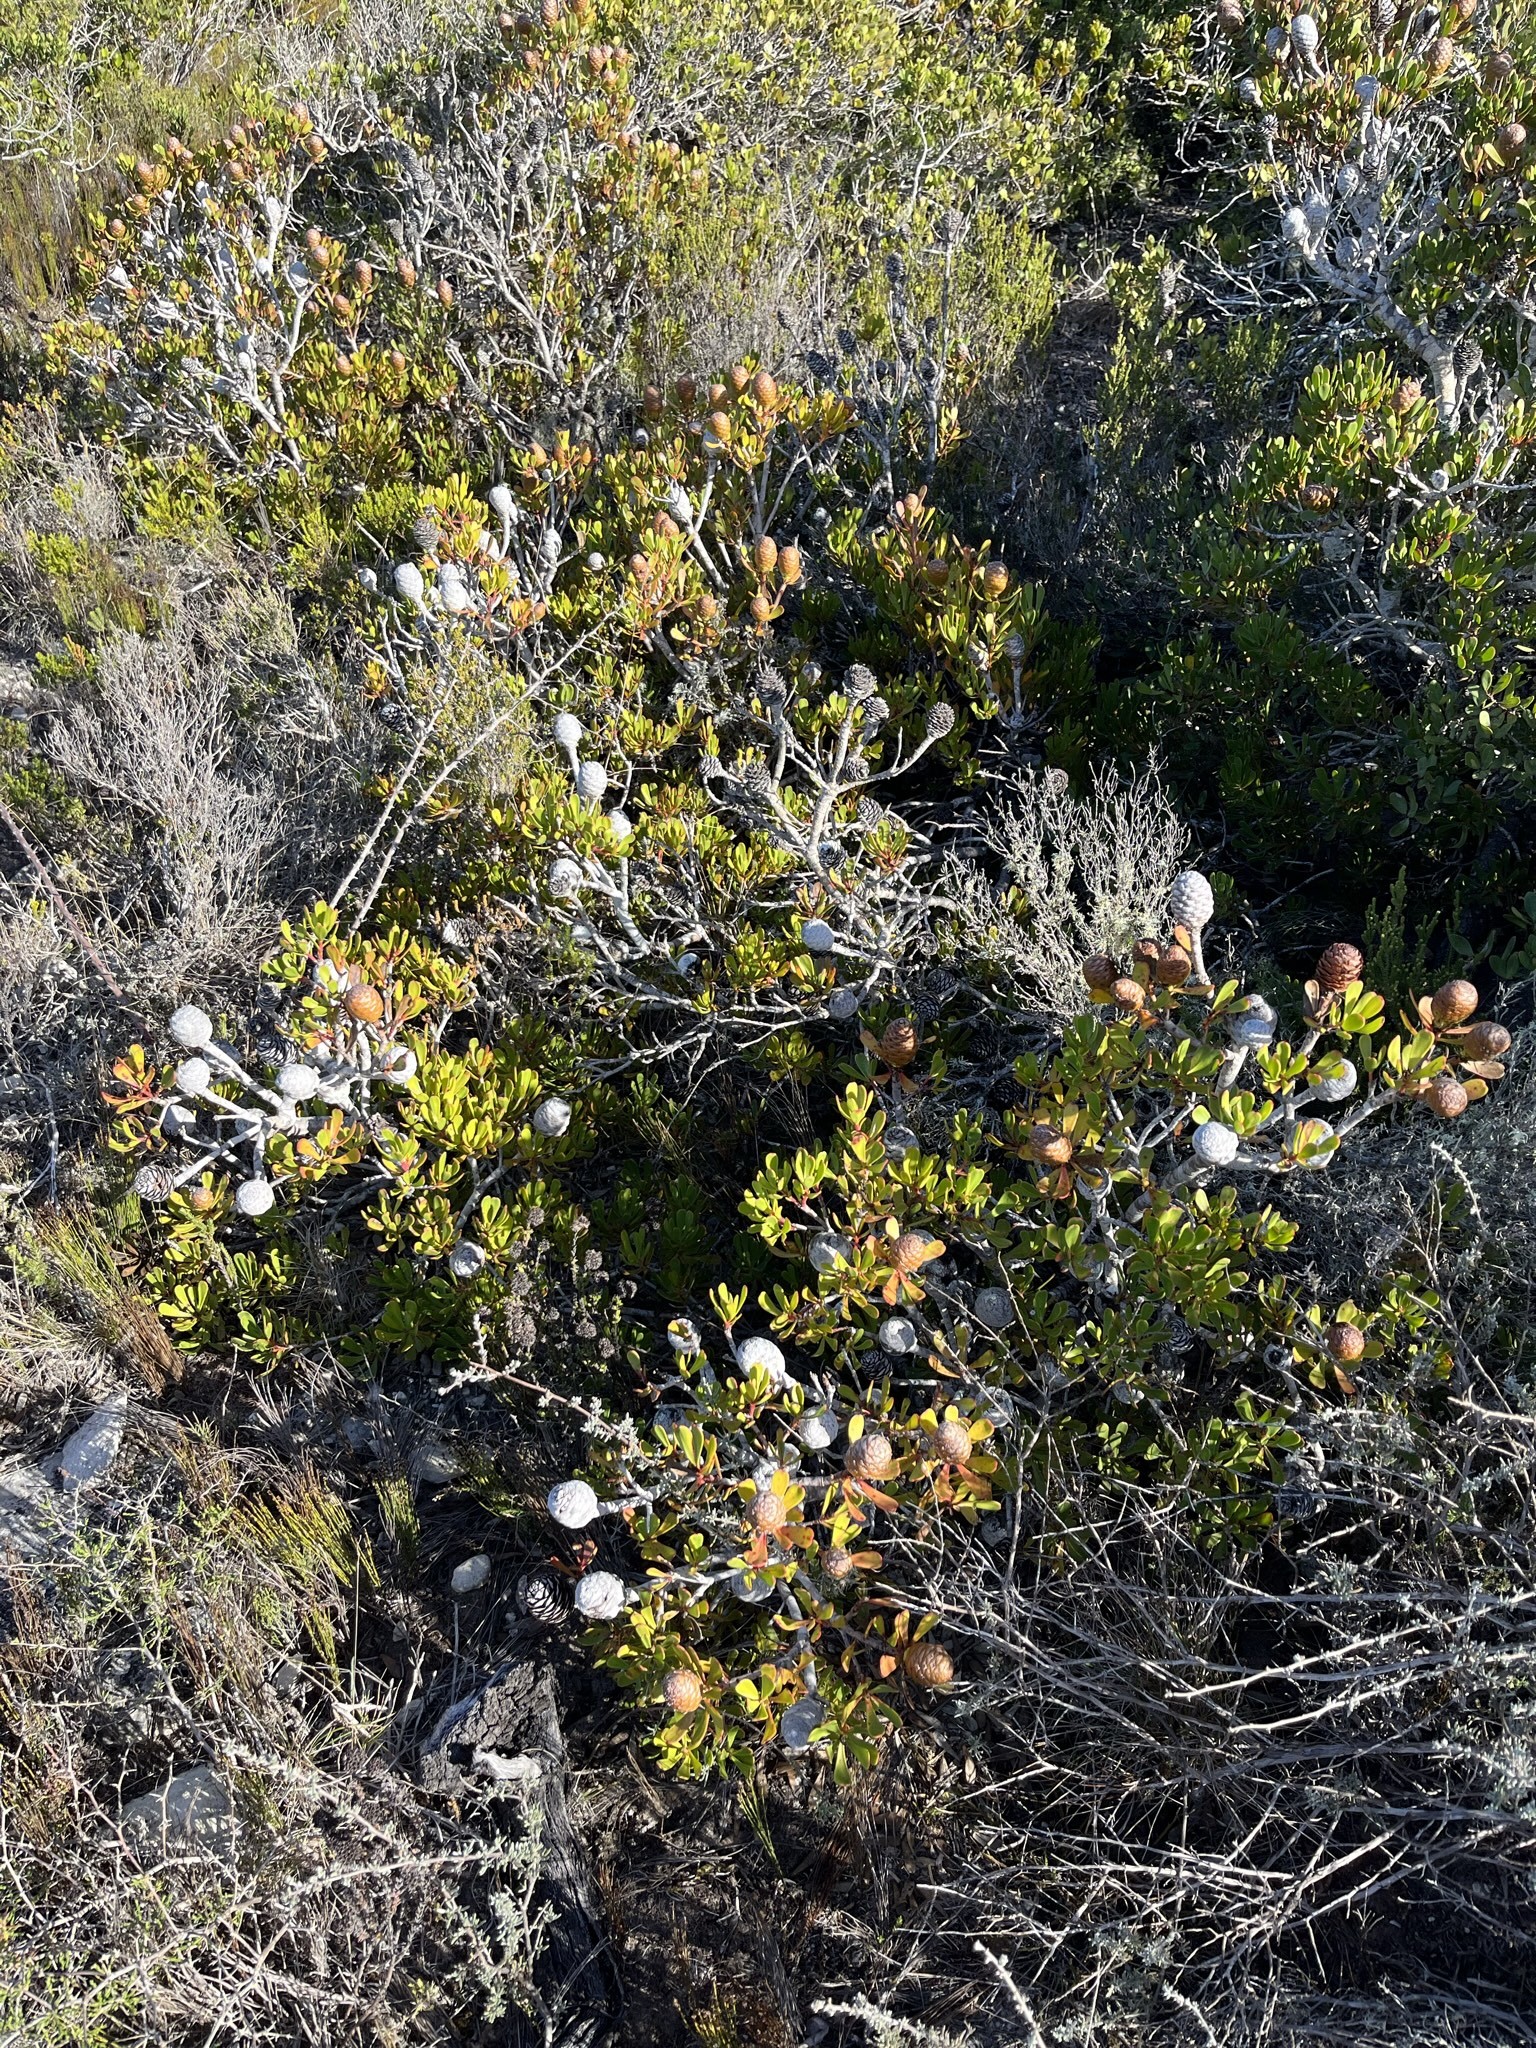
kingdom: Plantae
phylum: Tracheophyta
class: Magnoliopsida
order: Proteales
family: Proteaceae
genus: Leucadendron
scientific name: Leucadendron muirii
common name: Silver-ball conebush
